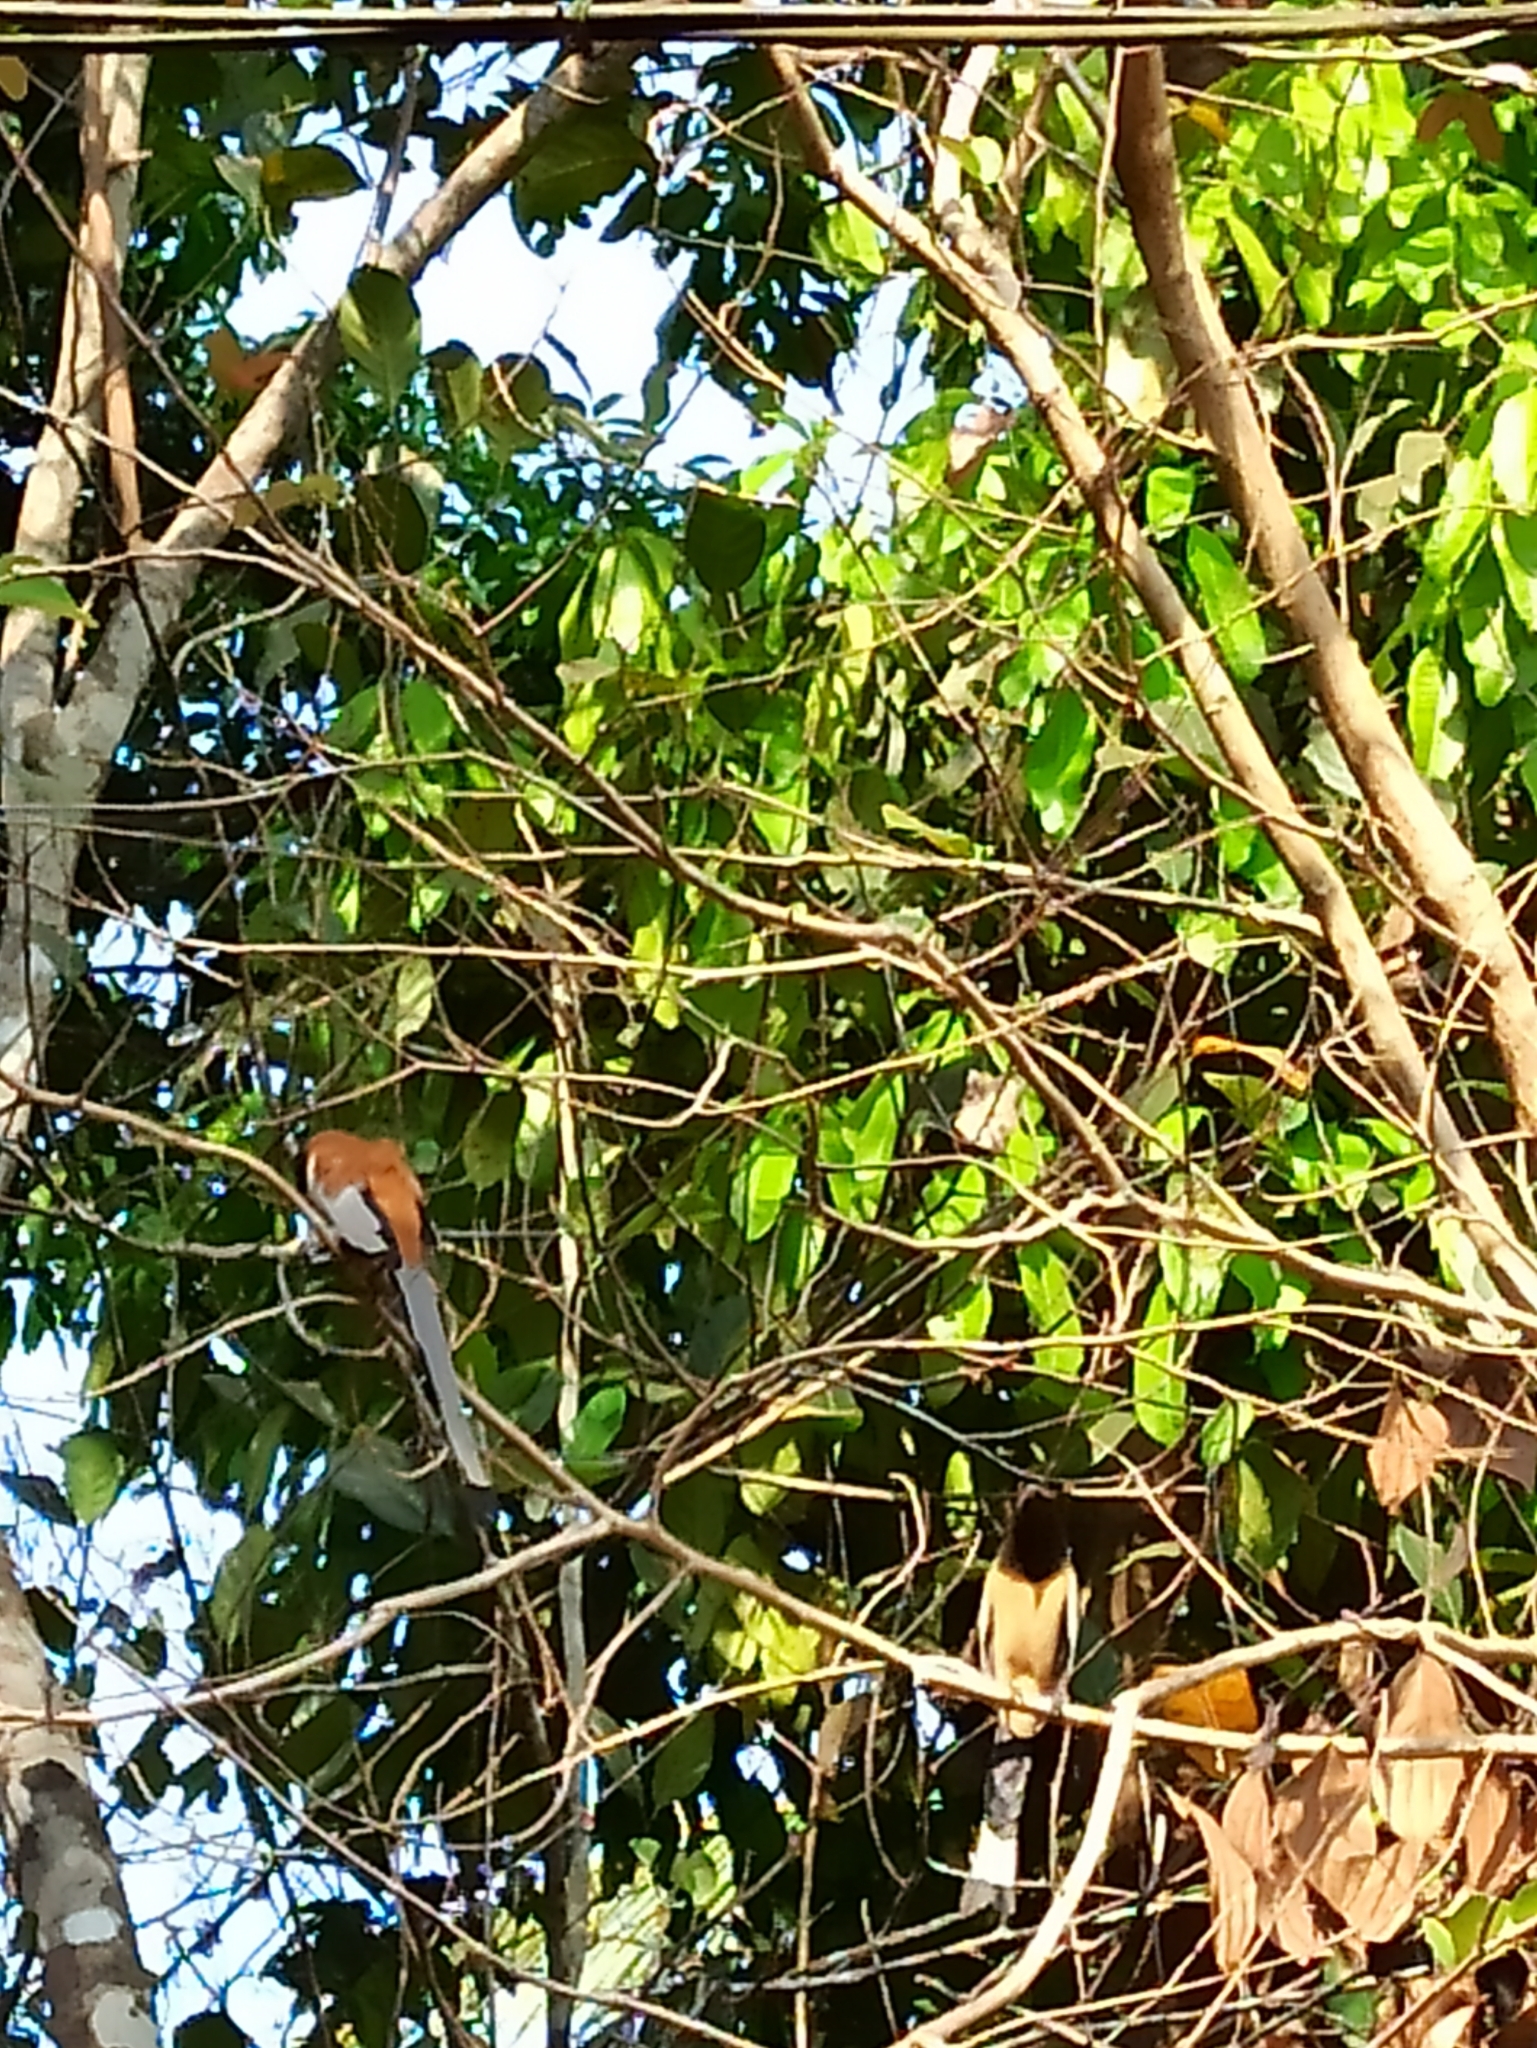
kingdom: Animalia
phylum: Chordata
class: Aves
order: Passeriformes
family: Corvidae
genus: Dendrocitta
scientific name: Dendrocitta vagabunda
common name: Rufous treepie
